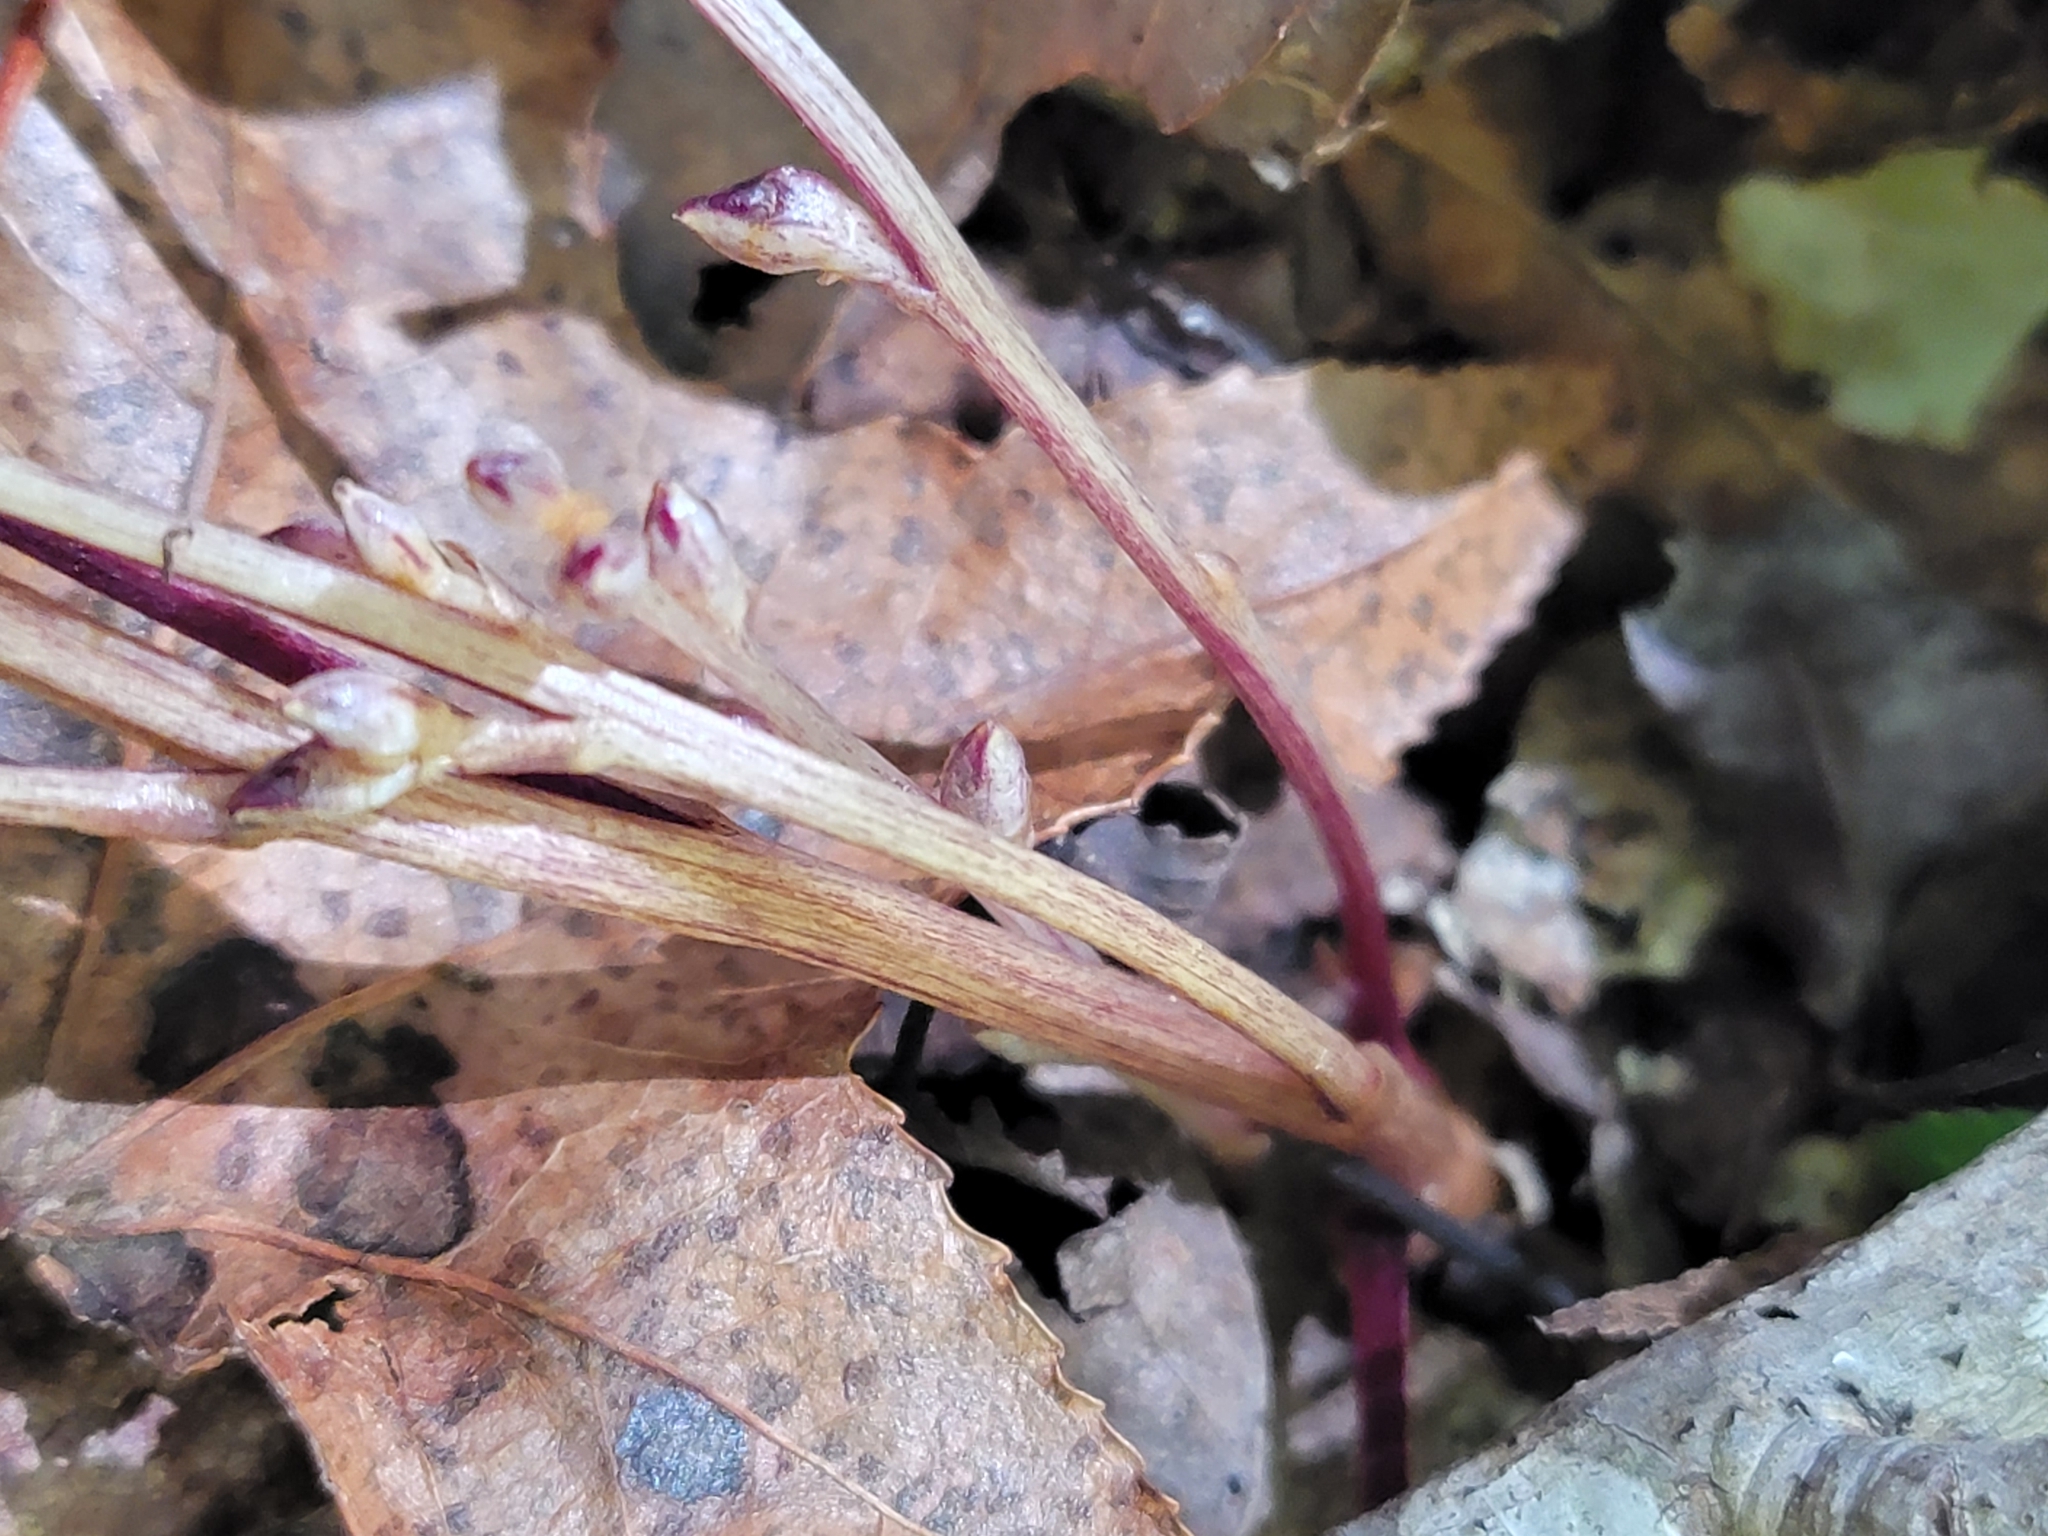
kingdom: Plantae
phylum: Tracheophyta
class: Magnoliopsida
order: Lamiales
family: Orobanchaceae
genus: Epifagus
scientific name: Epifagus virginiana
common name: Beechdrops
